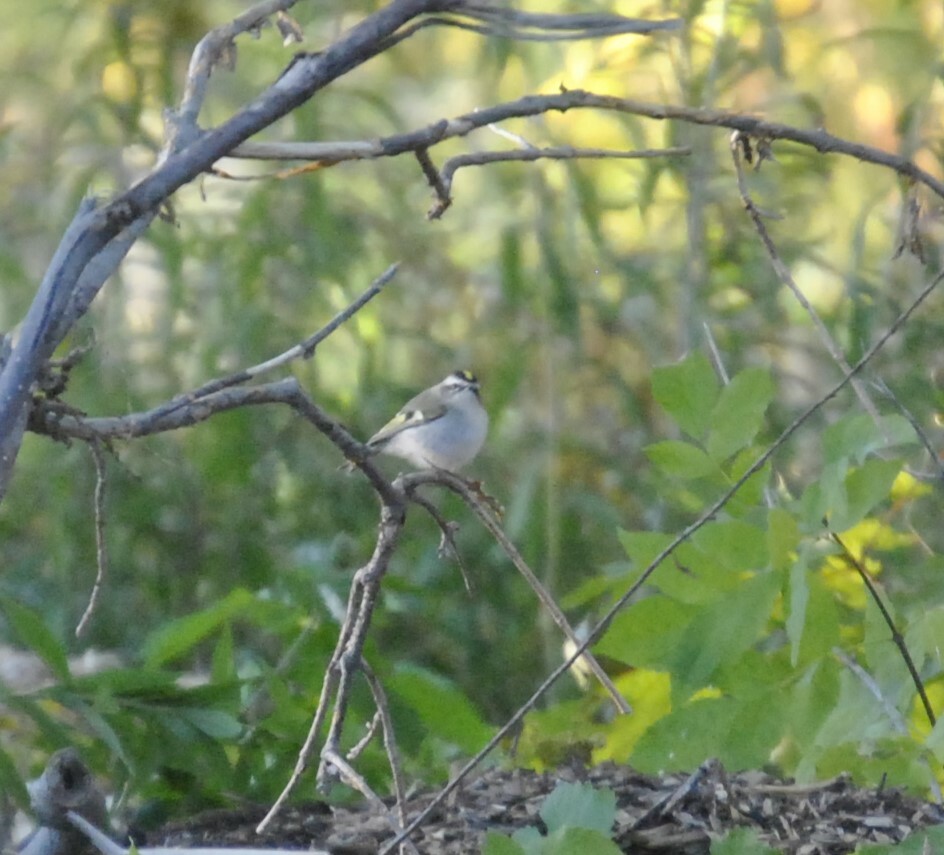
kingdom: Animalia
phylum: Chordata
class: Aves
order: Passeriformes
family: Regulidae
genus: Regulus
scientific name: Regulus satrapa
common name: Golden-crowned kinglet
